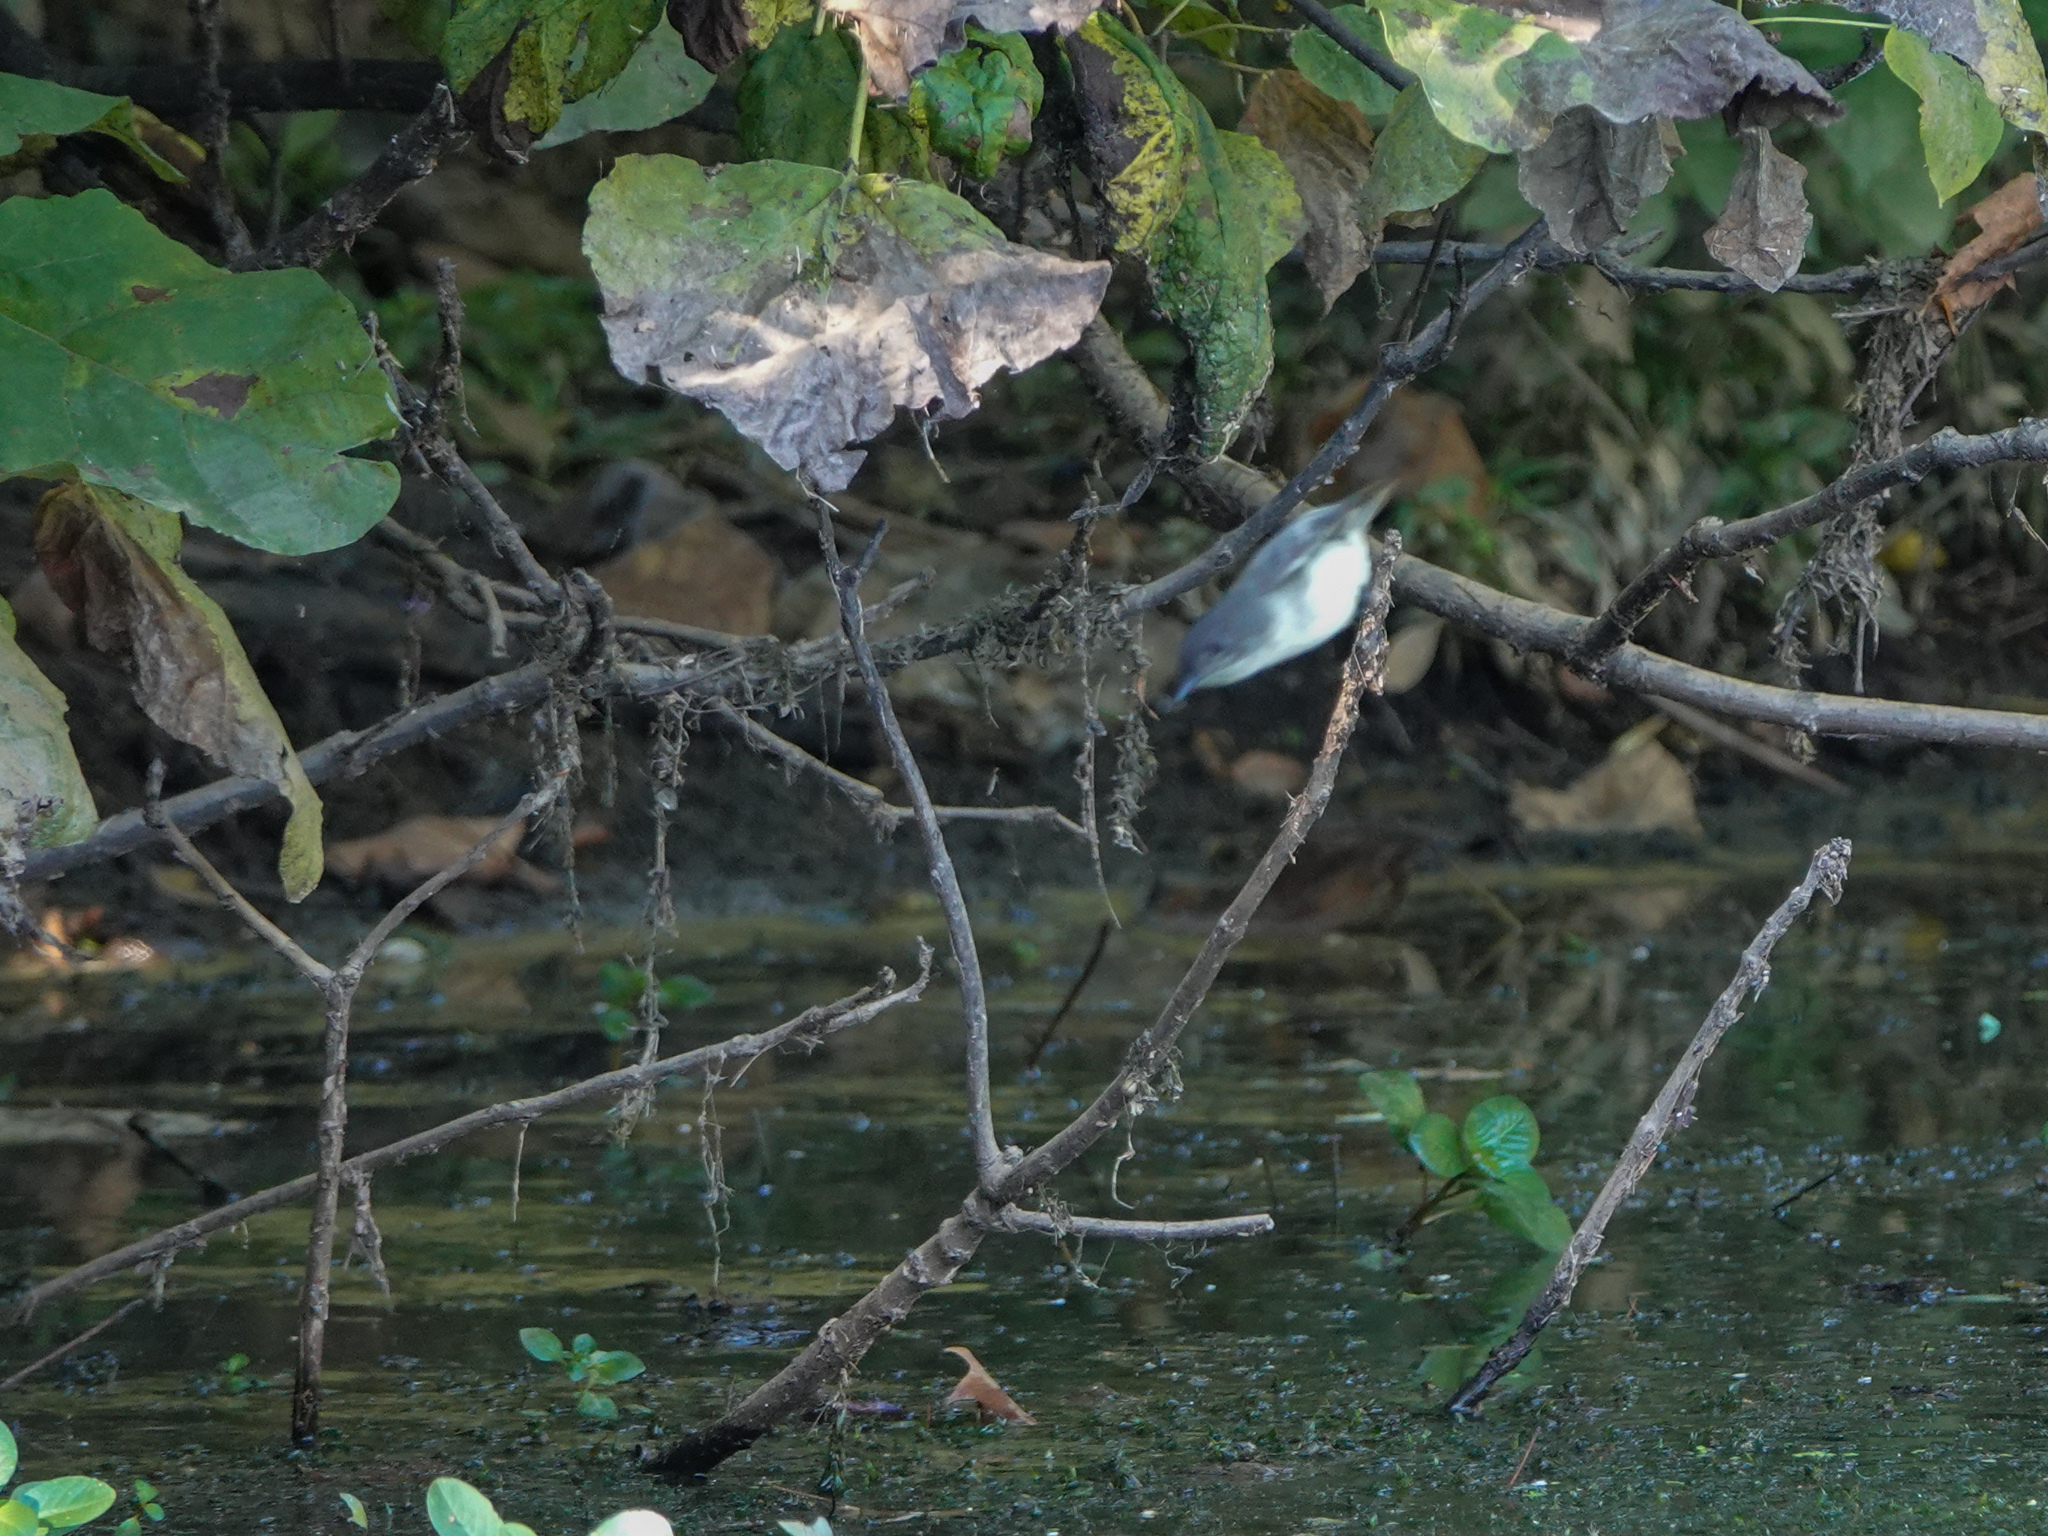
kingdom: Animalia
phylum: Chordata
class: Aves
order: Passeriformes
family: Tyrannidae
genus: Sayornis
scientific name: Sayornis phoebe
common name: Eastern phoebe
